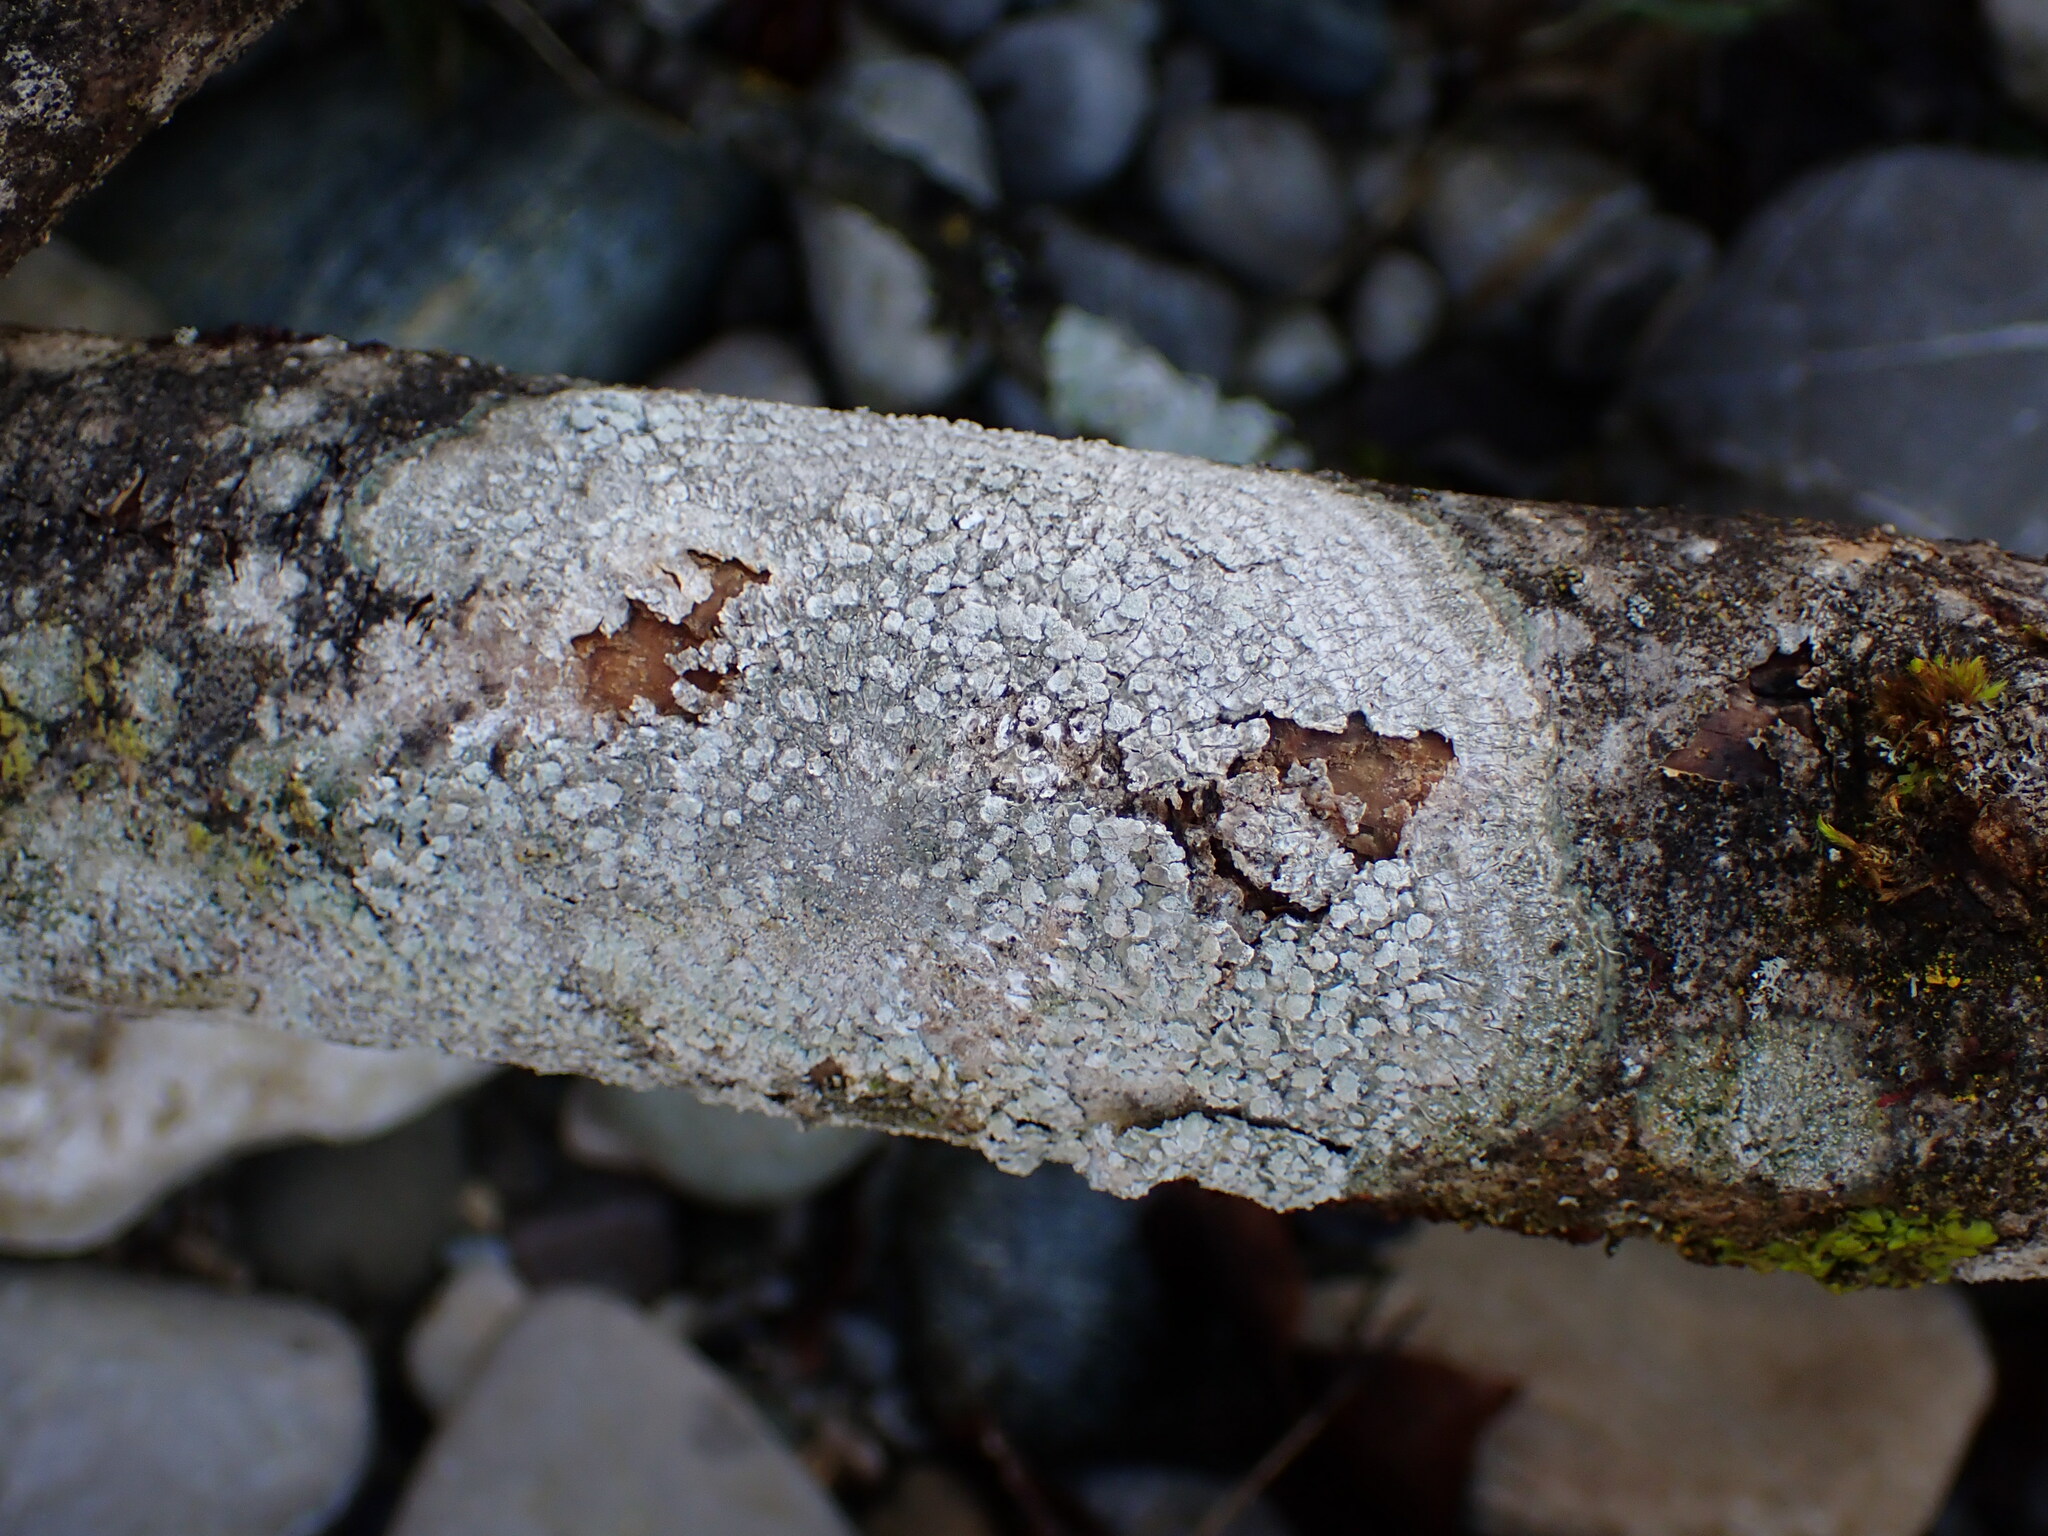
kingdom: Fungi
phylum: Ascomycota
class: Lecanoromycetes
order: Pertusariales
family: Pertusariaceae
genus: Lepra
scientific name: Lepra albescens
